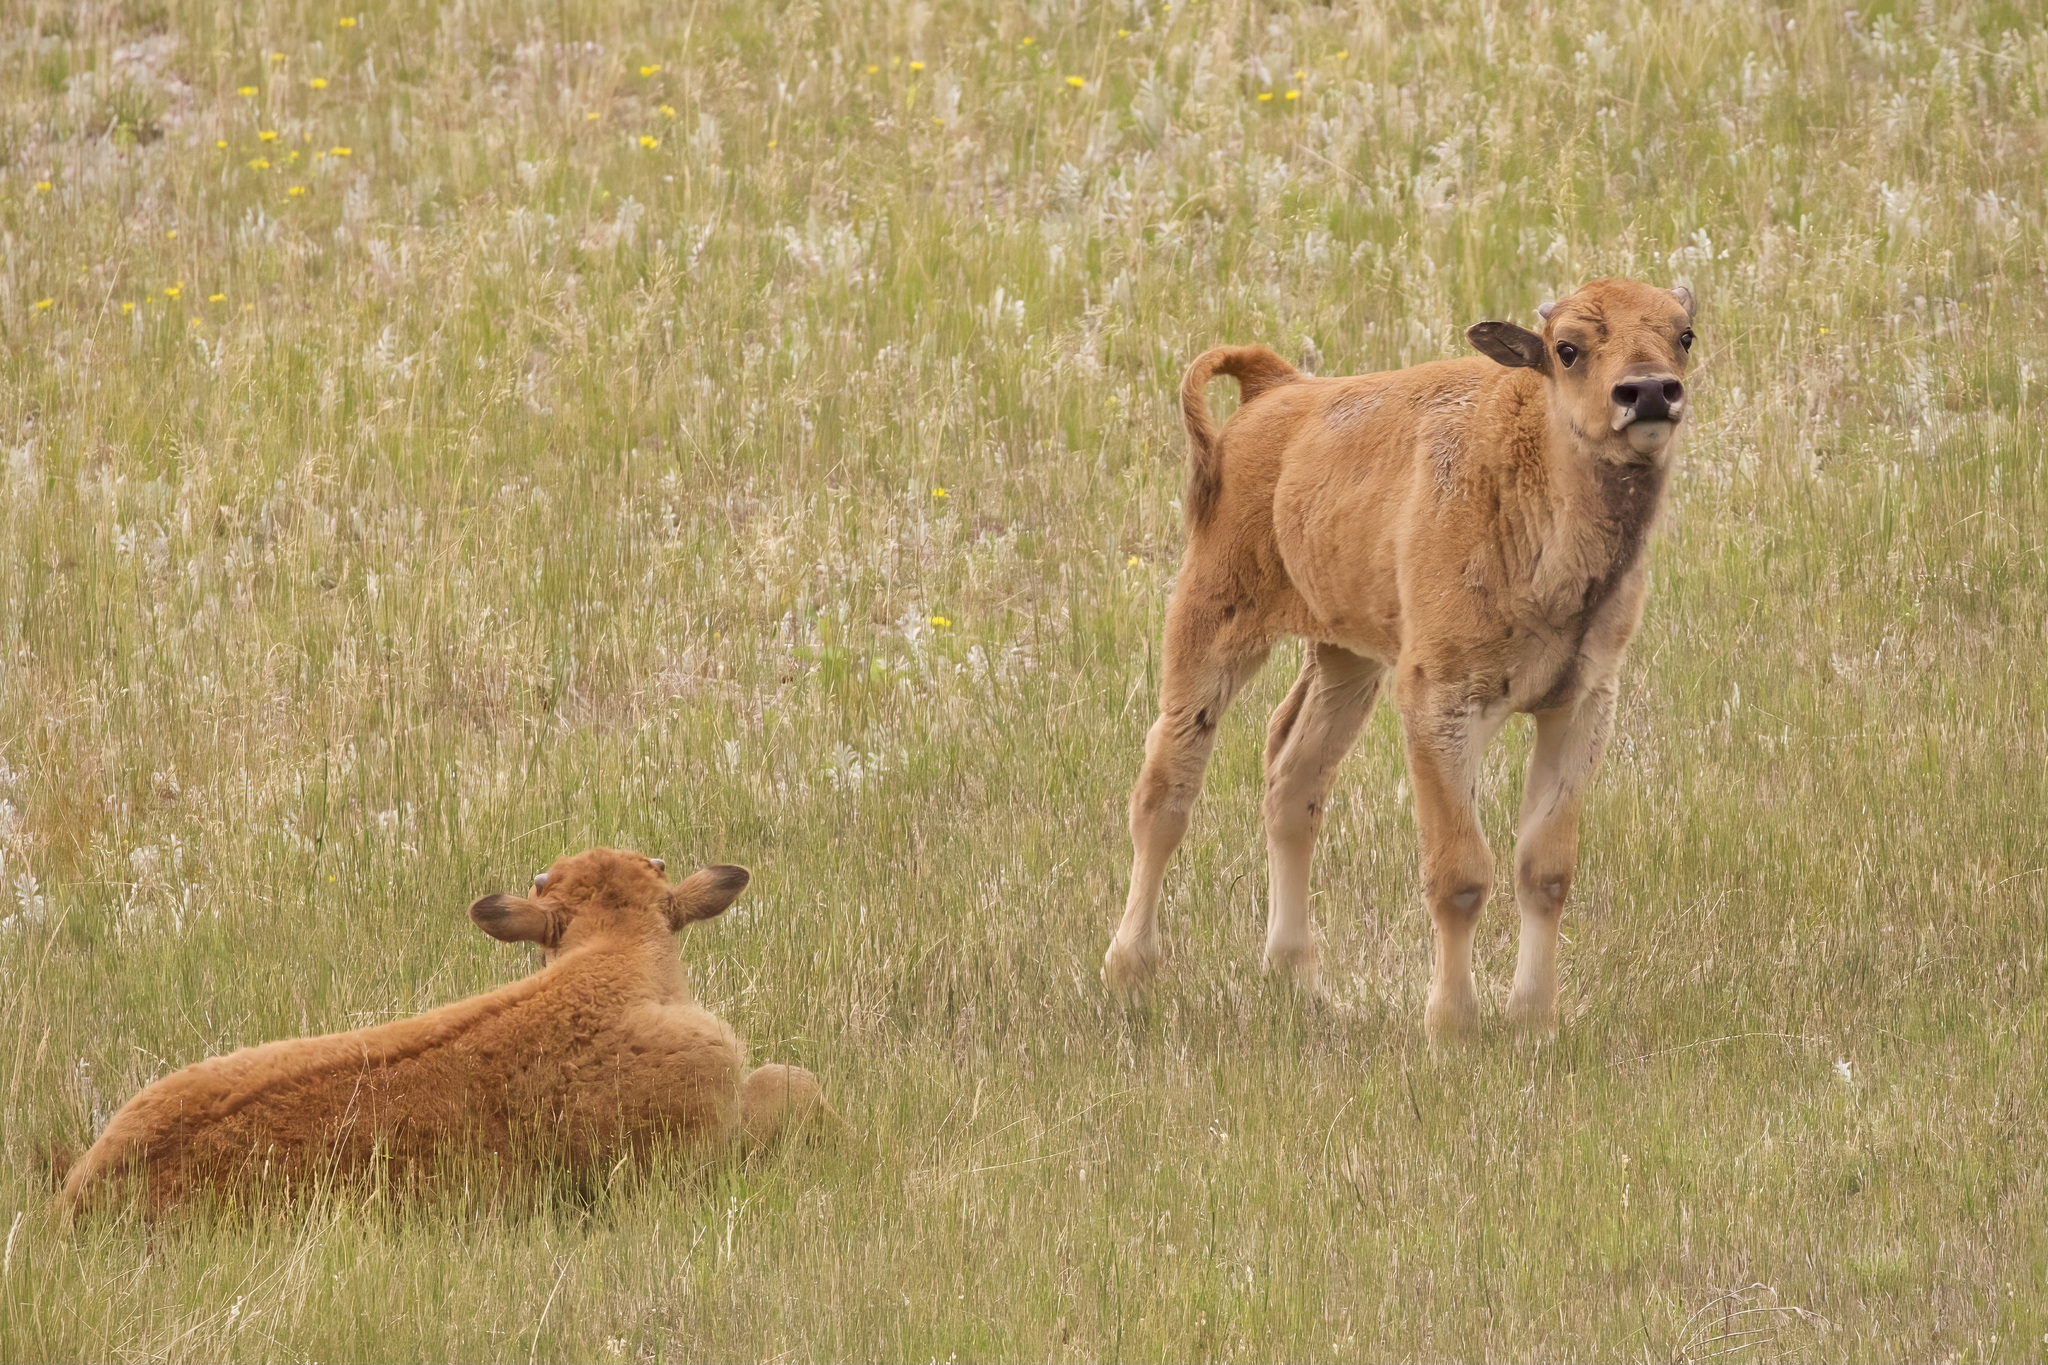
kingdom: Animalia
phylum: Chordata
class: Mammalia
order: Artiodactyla
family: Bovidae
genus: Bison
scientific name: Bison bison
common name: American bison
